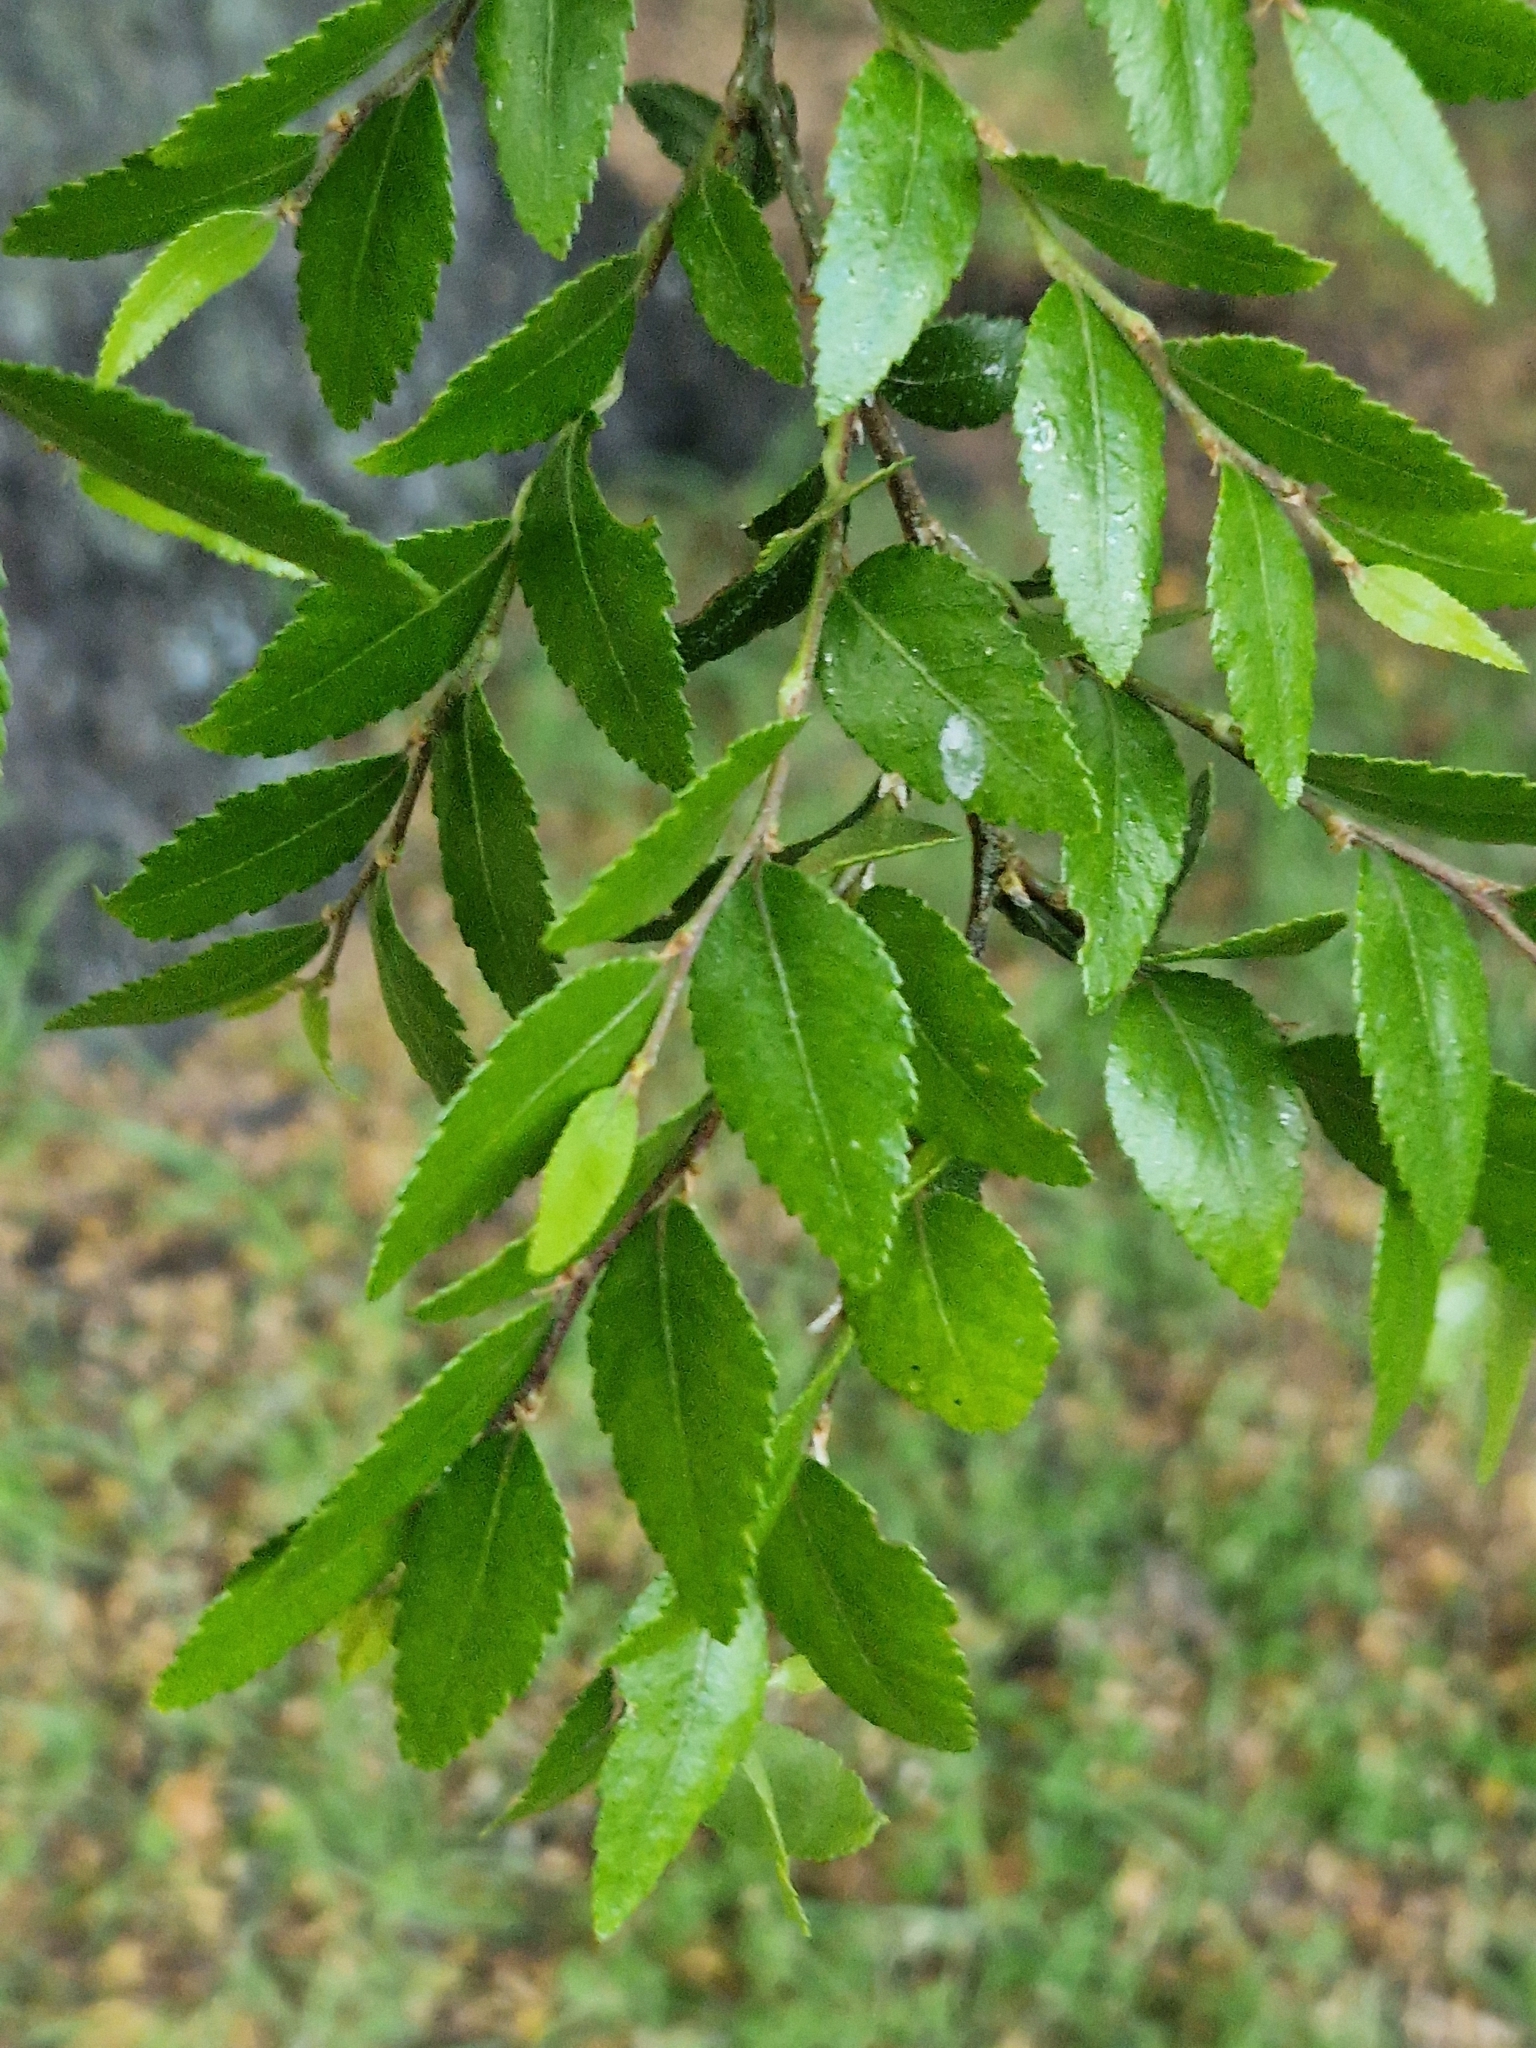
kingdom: Plantae
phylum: Tracheophyta
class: Magnoliopsida
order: Fagales
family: Nothofagaceae
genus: Nothofagus
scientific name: Nothofagus dombeyi
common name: Coigue
